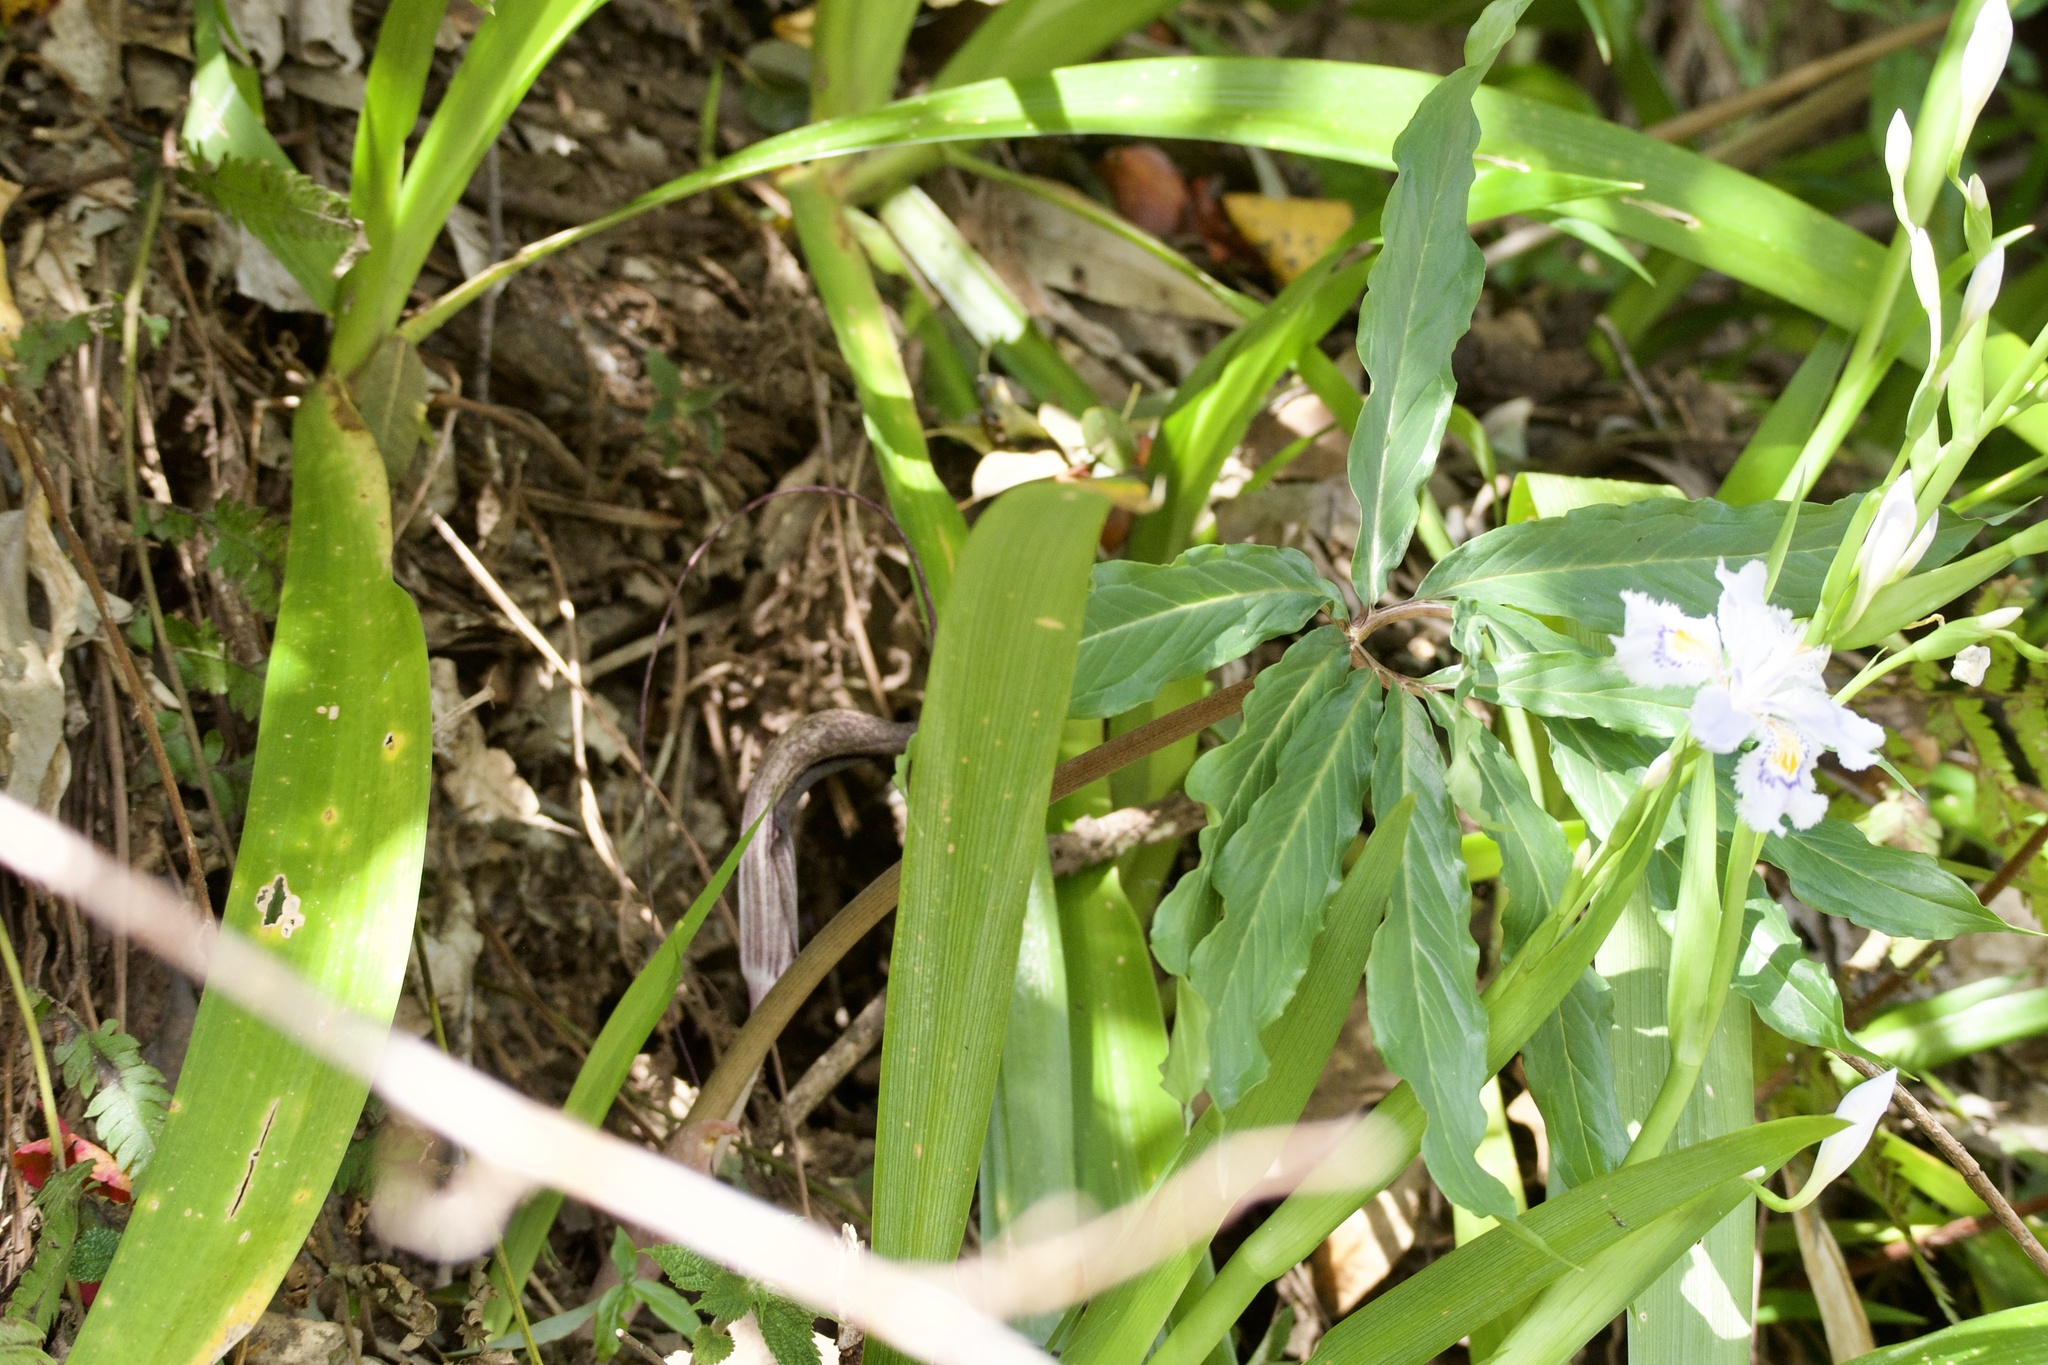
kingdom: Plantae
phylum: Tracheophyta
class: Liliopsida
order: Alismatales
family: Araceae
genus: Arisaema
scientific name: Arisaema thunbergii
